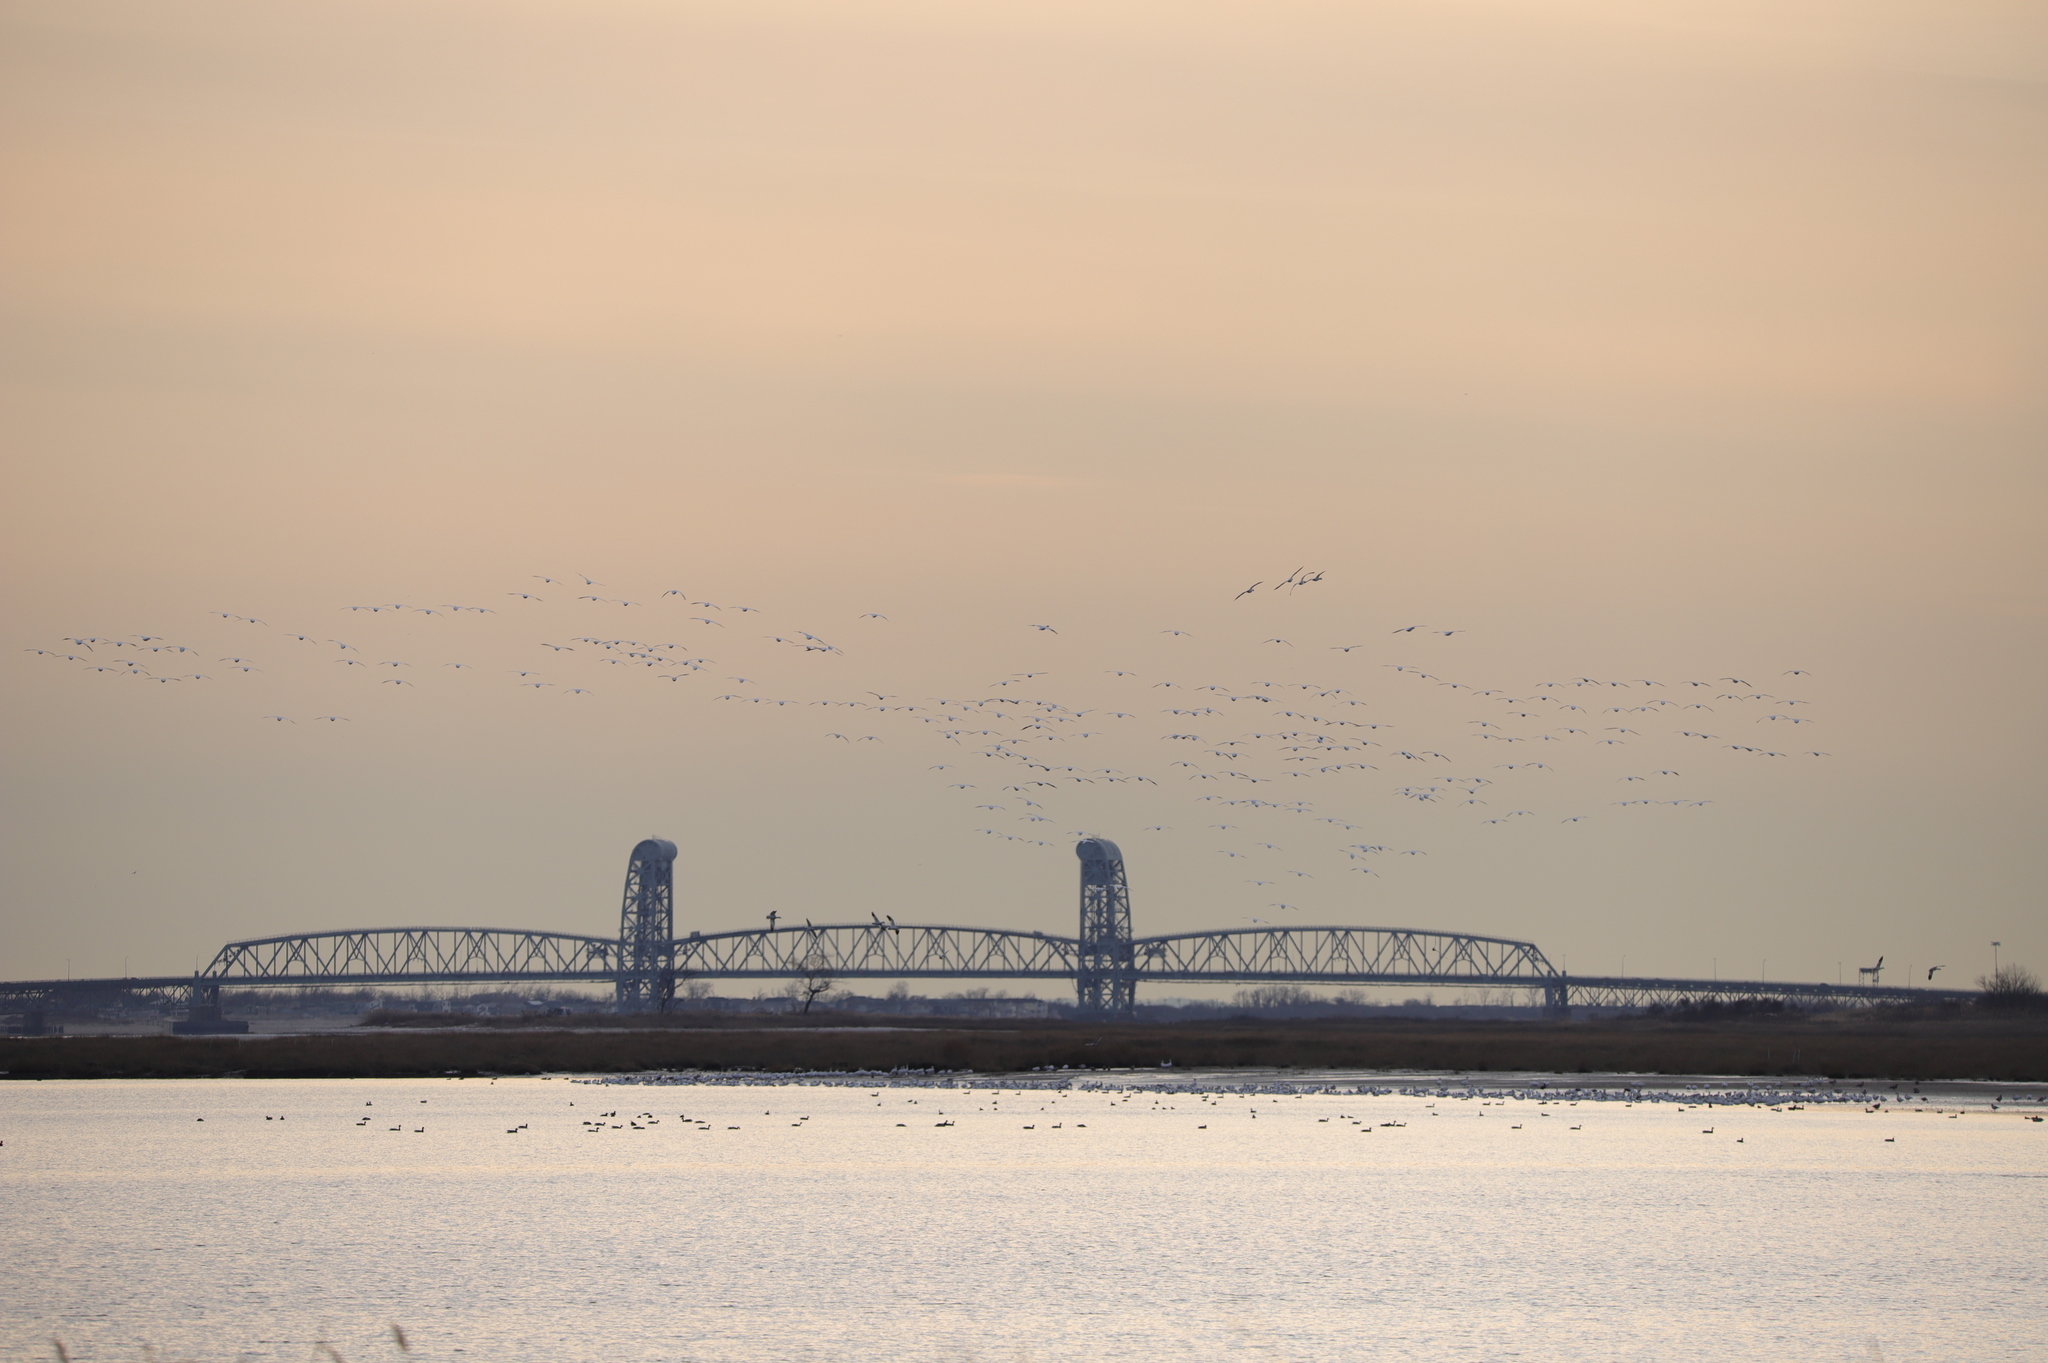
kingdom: Animalia
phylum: Chordata
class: Aves
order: Anseriformes
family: Anatidae
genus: Anser
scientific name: Anser caerulescens
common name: Snow goose
